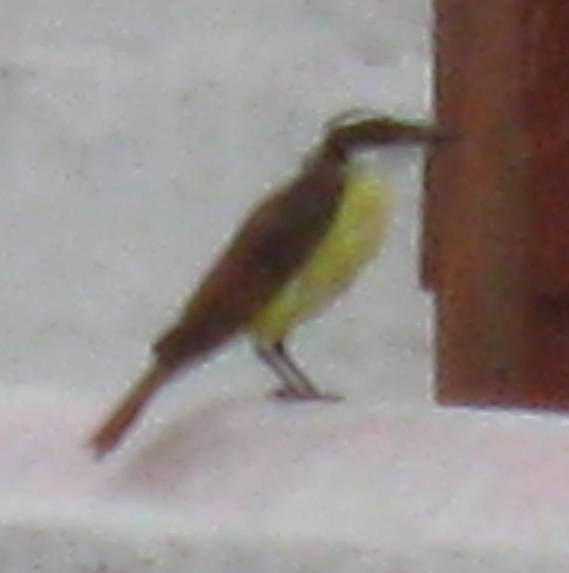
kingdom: Animalia
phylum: Chordata
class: Aves
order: Passeriformes
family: Tyrannidae
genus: Pitangus
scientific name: Pitangus sulphuratus
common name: Great kiskadee
